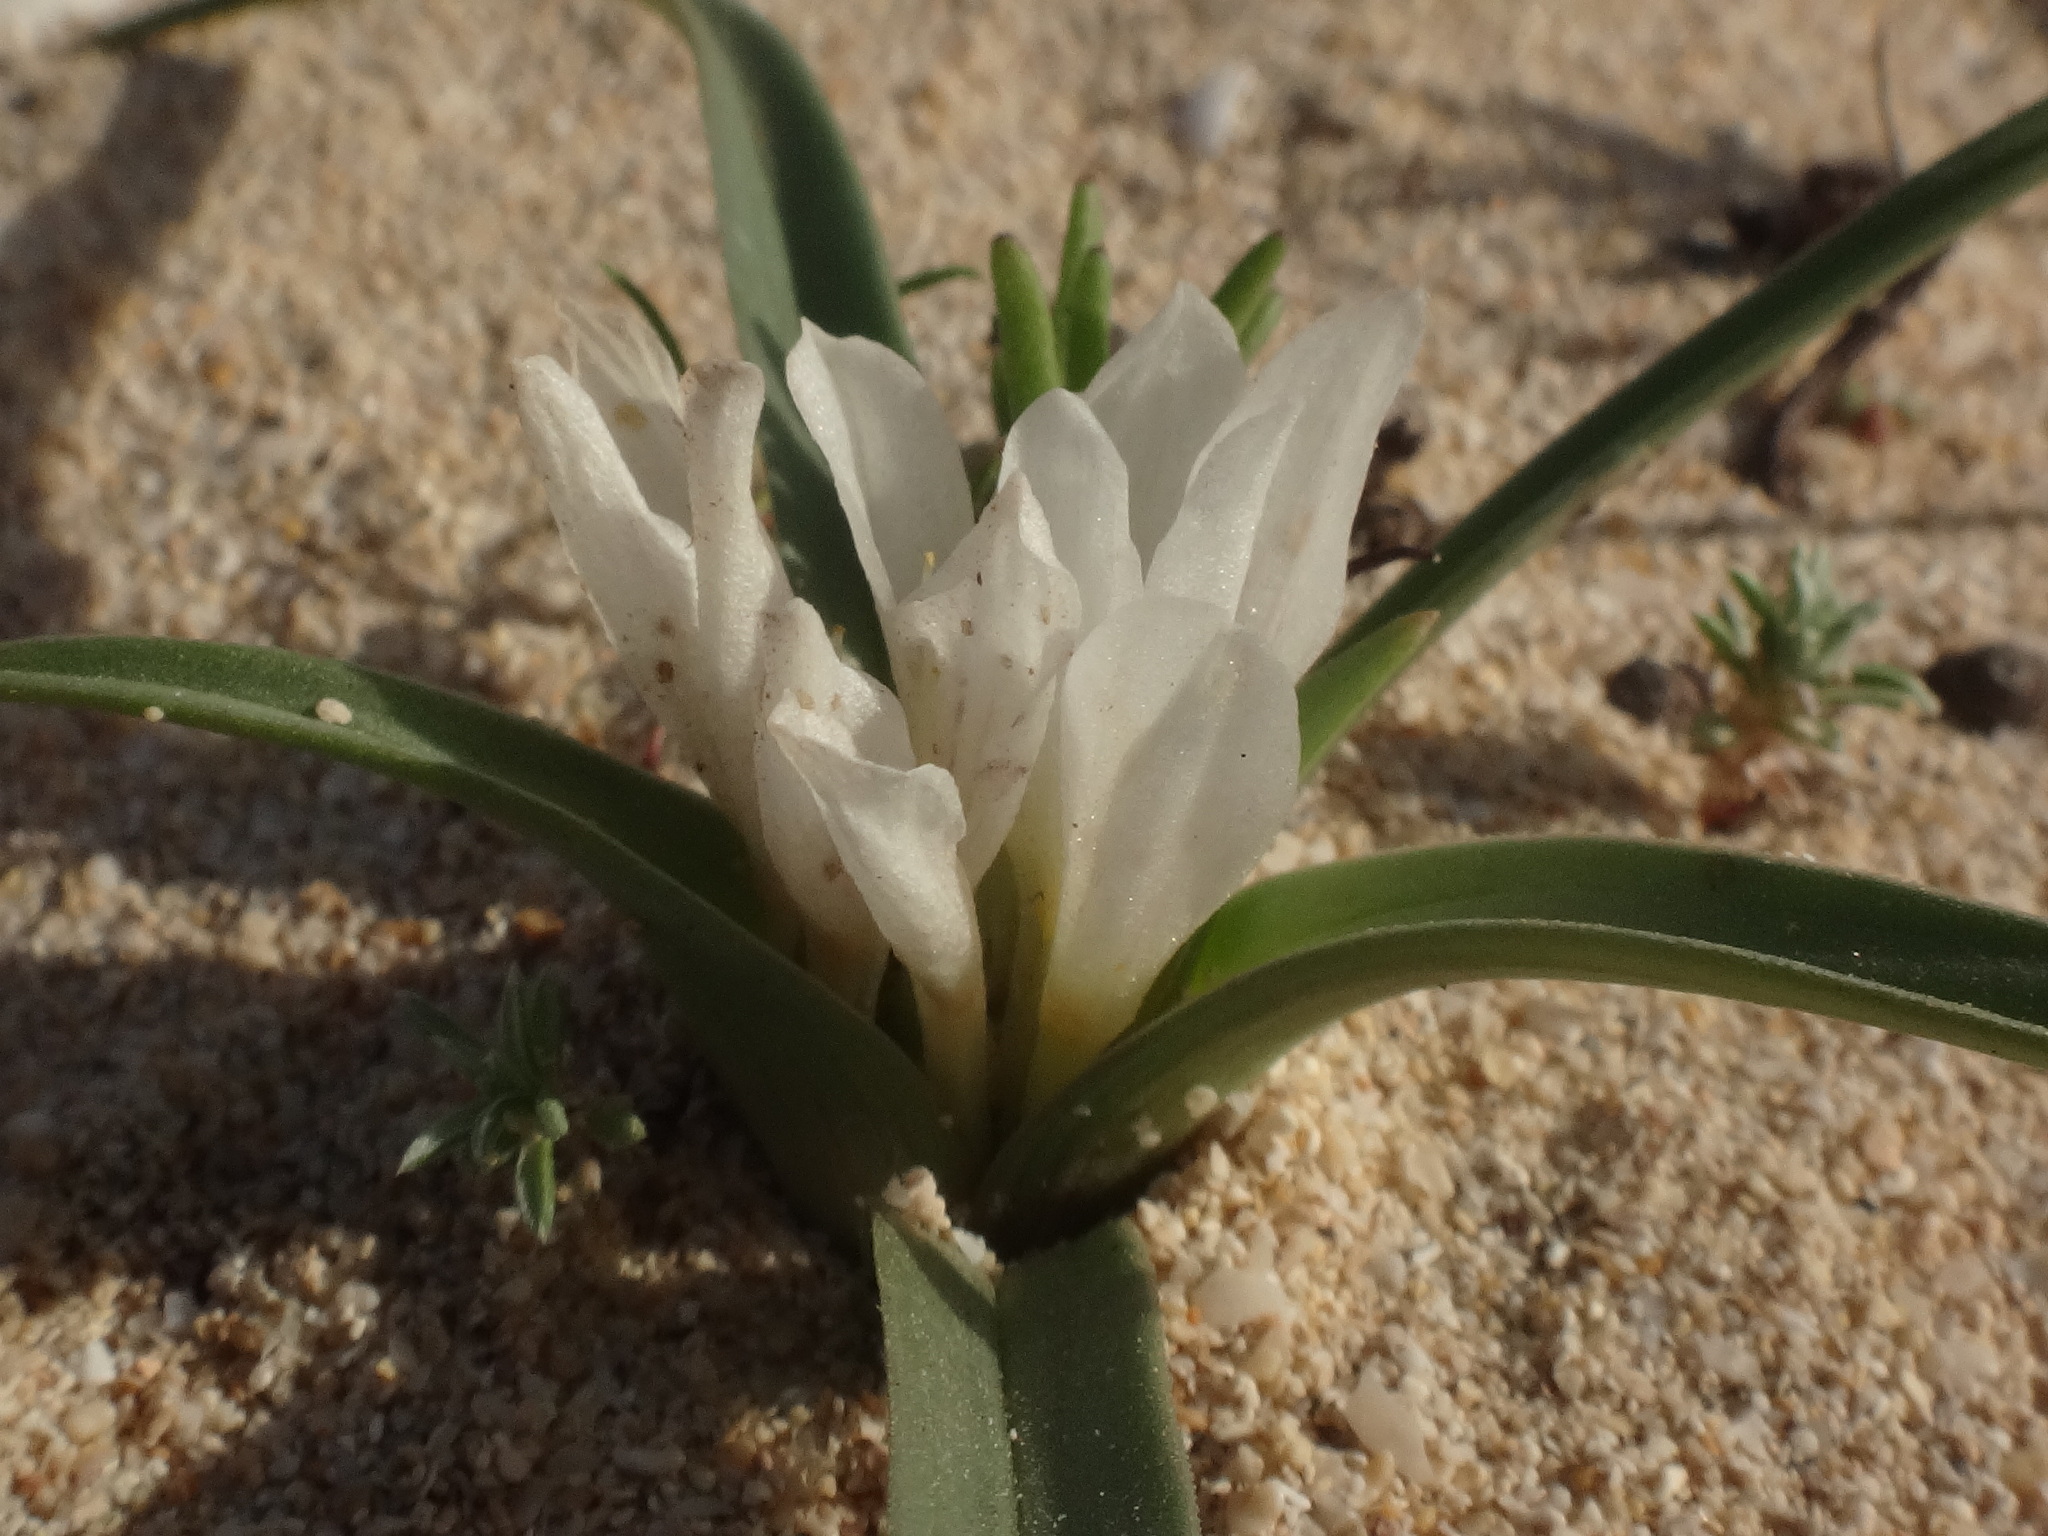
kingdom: Plantae
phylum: Tracheophyta
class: Liliopsida
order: Liliales
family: Colchicaceae
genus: Colchicum
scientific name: Colchicum psammophilum
